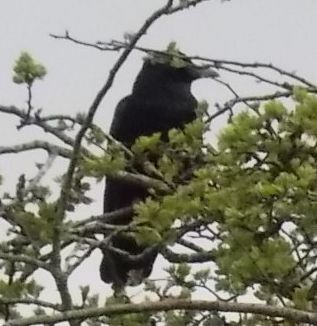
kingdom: Animalia
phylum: Chordata
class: Aves
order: Passeriformes
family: Corvidae
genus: Corvus
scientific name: Corvus corone
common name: Carrion crow
